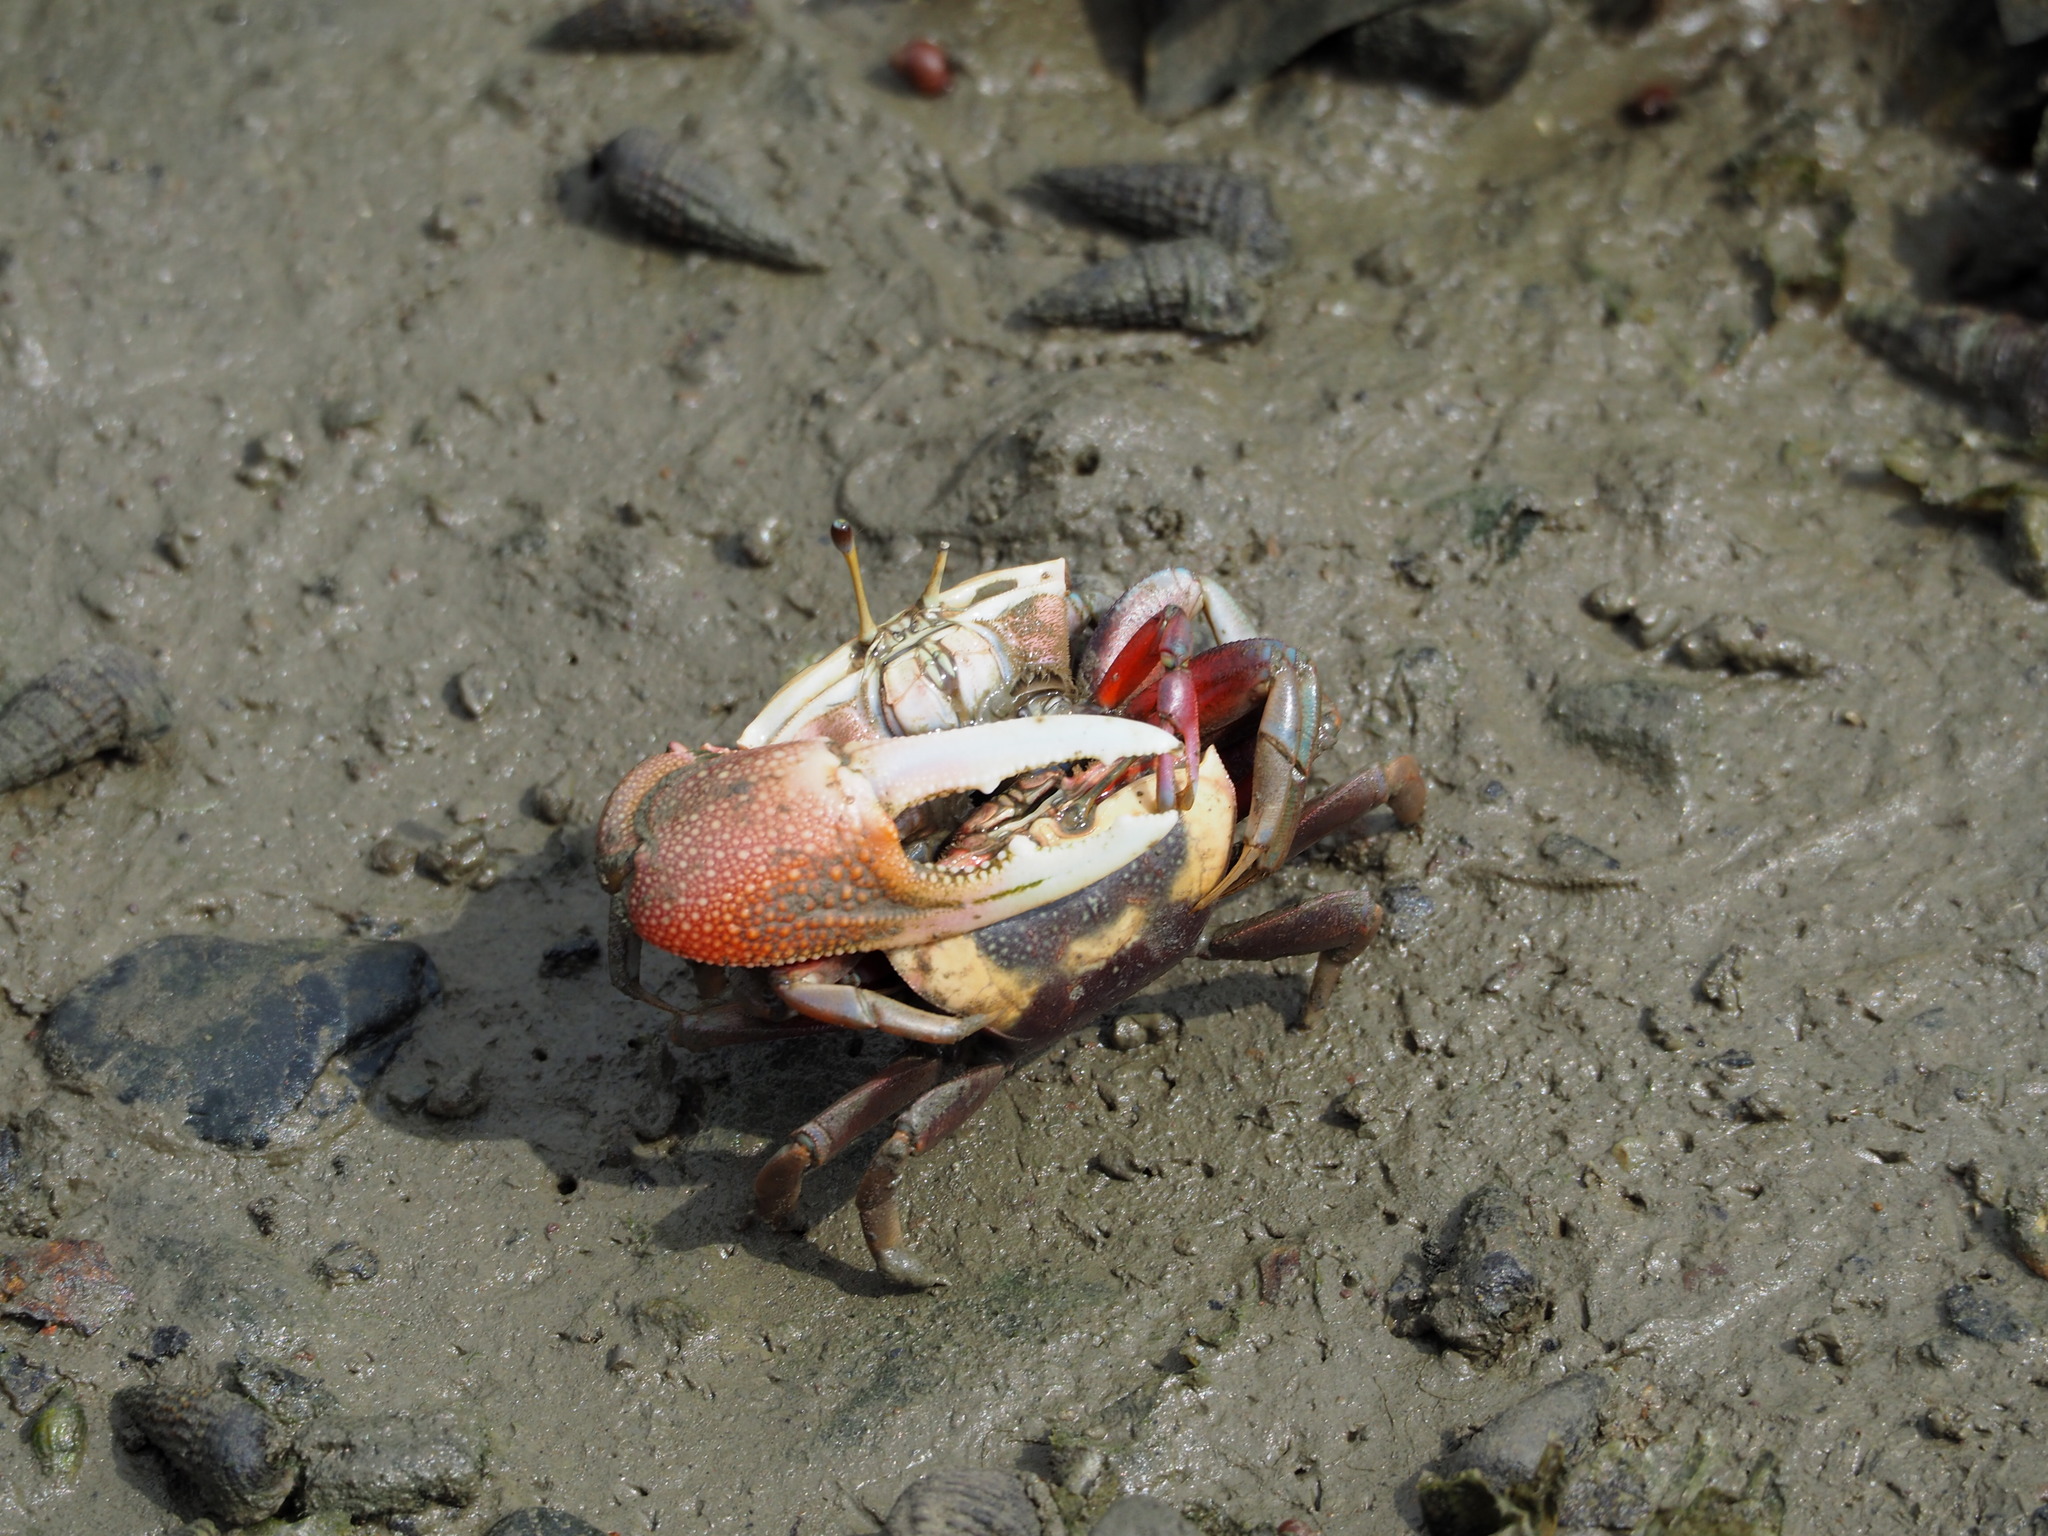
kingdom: Animalia
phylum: Arthropoda
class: Malacostraca
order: Decapoda
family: Ocypodidae
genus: Tubuca
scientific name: Tubuca arcuata
